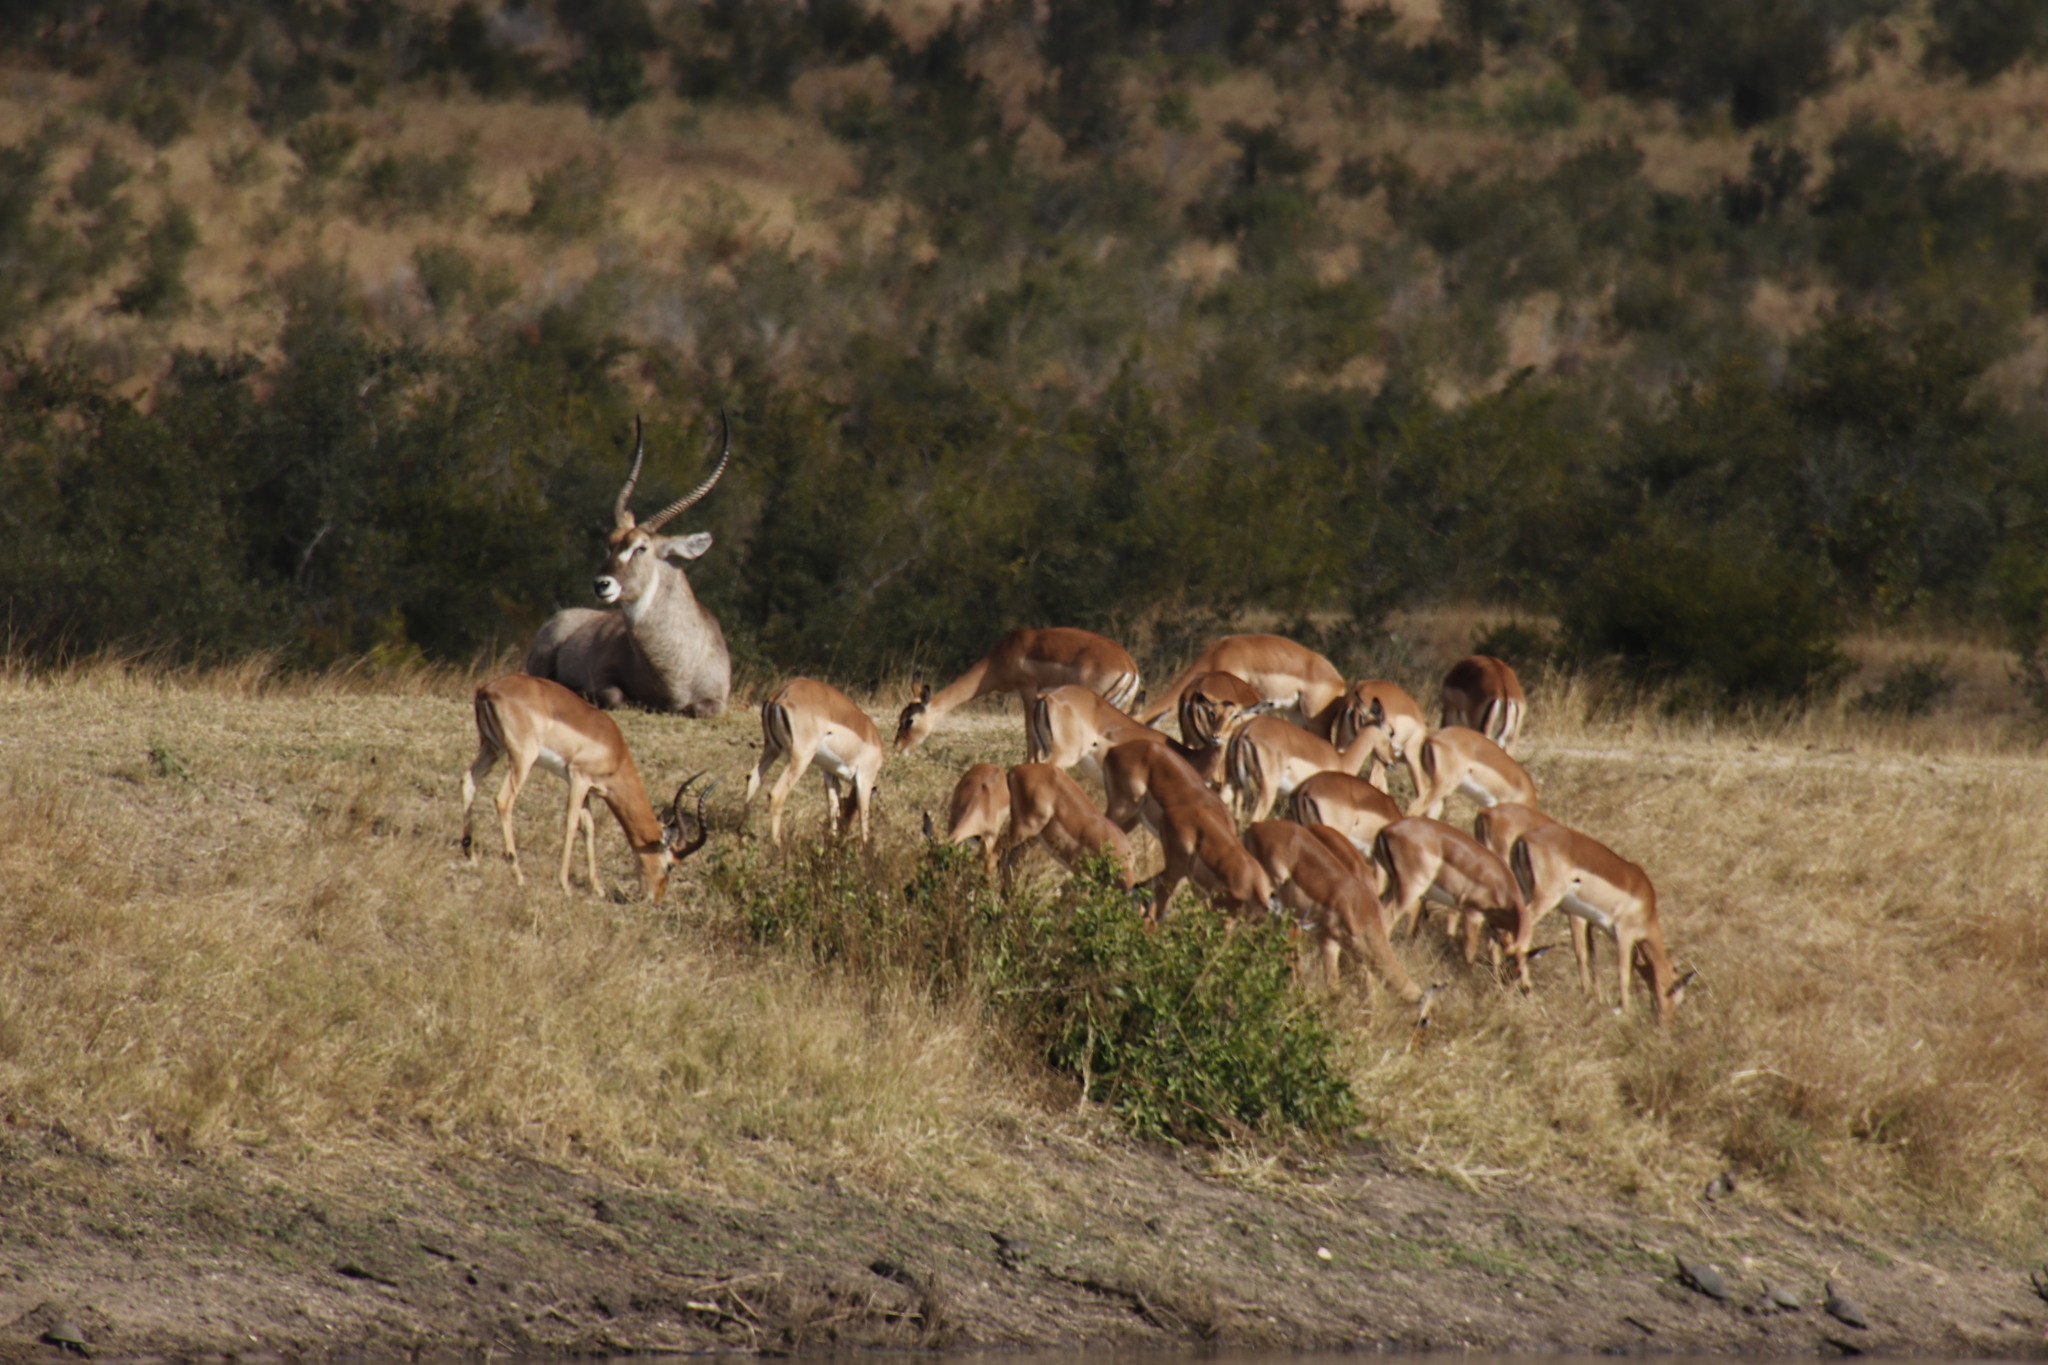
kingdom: Animalia
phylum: Chordata
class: Mammalia
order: Artiodactyla
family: Bovidae
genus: Kobus
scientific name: Kobus ellipsiprymnus
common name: Waterbuck
